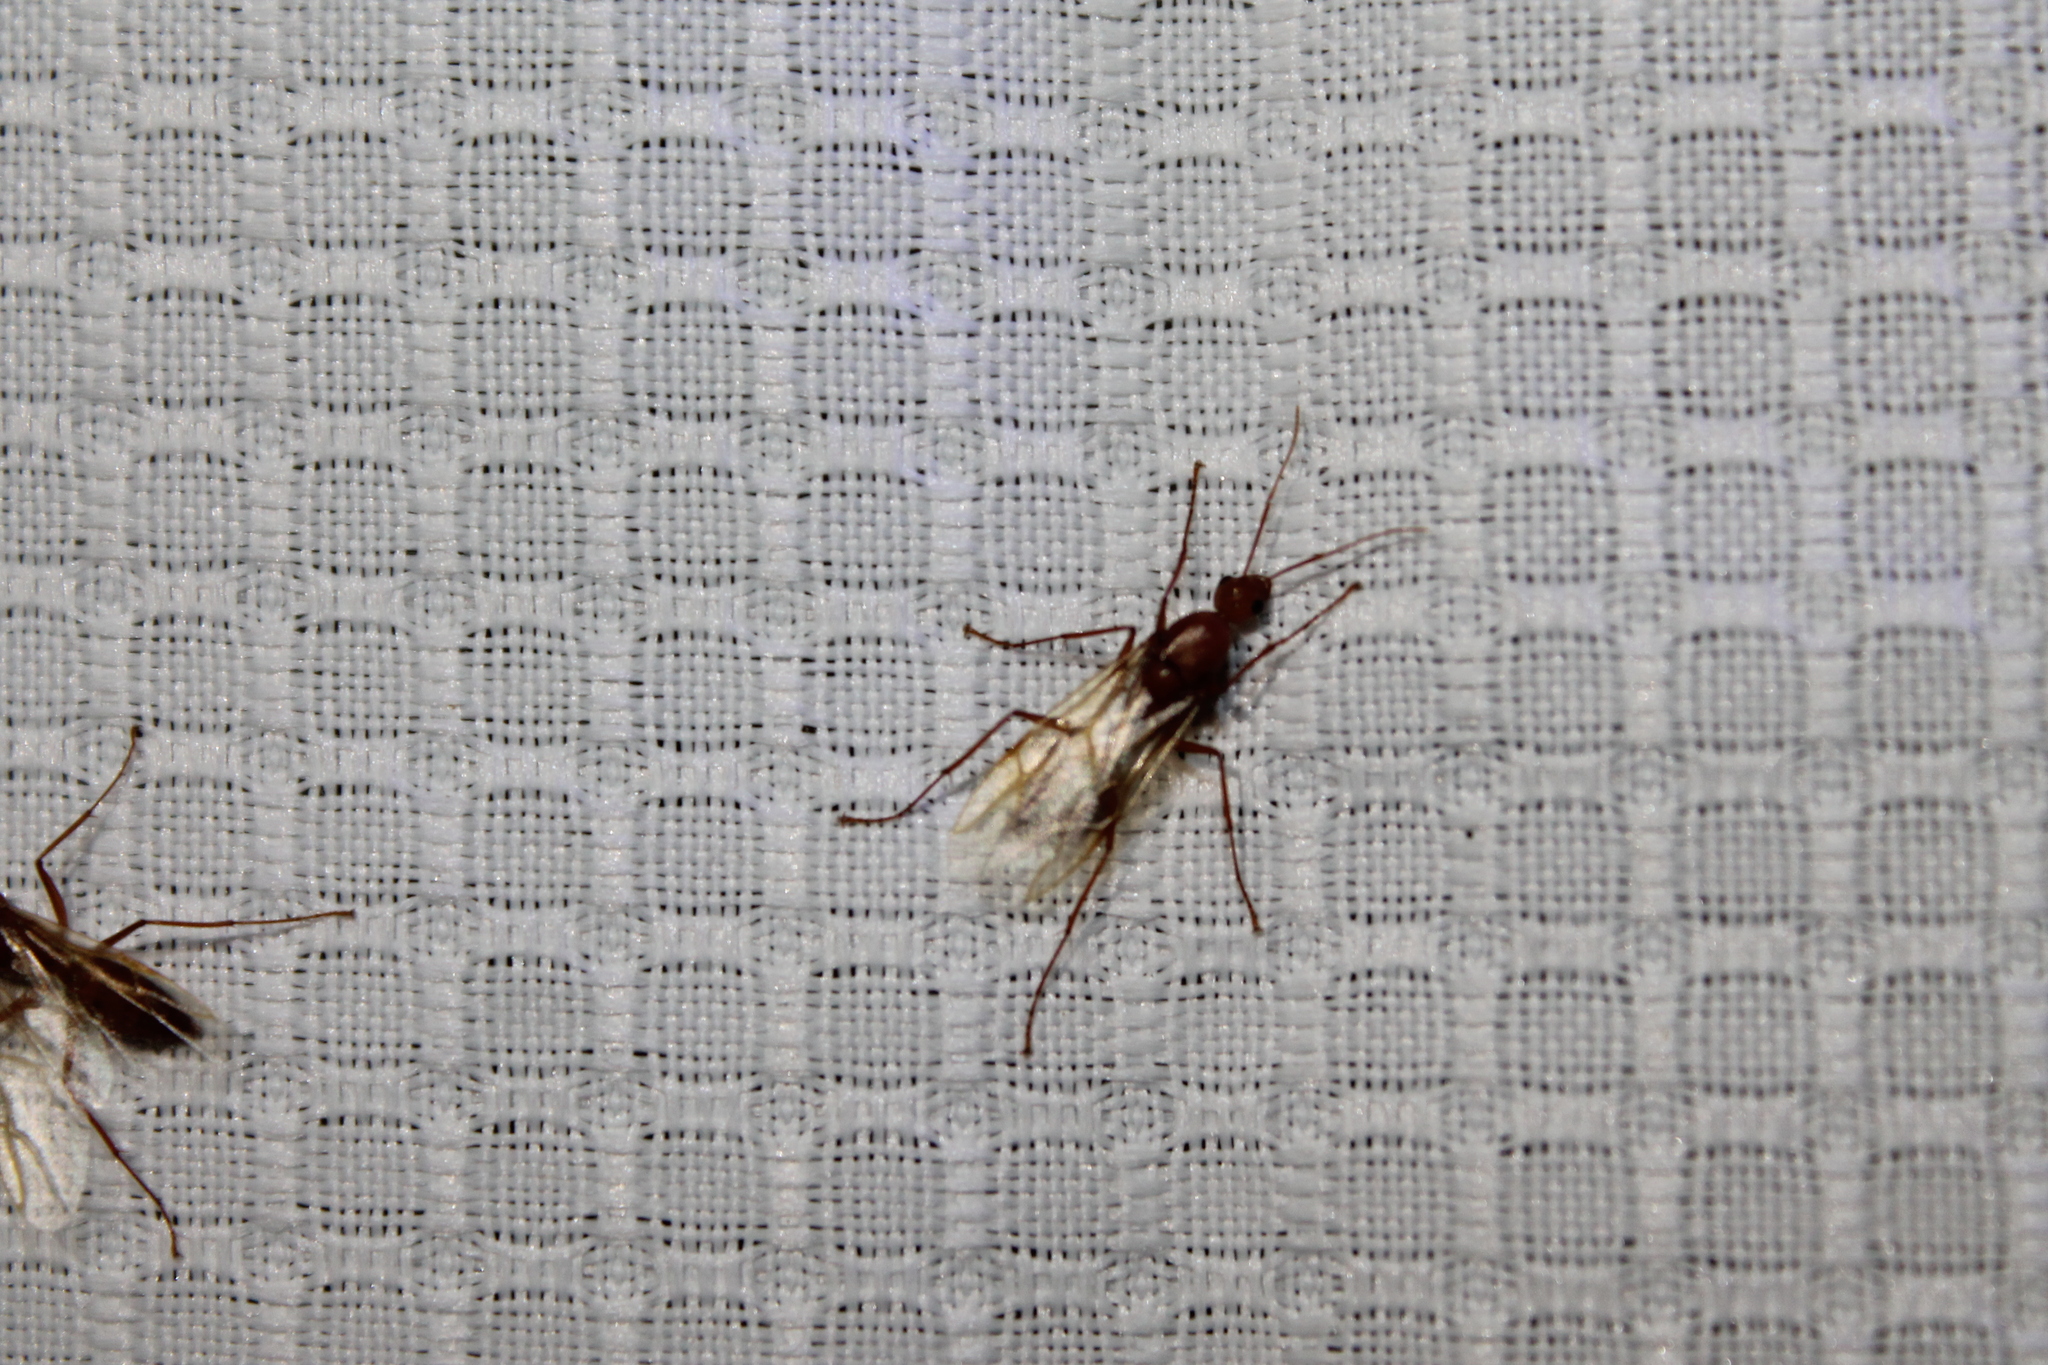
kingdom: Animalia
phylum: Arthropoda
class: Insecta
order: Hymenoptera
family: Formicidae
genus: Camponotus
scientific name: Camponotus castaneus
